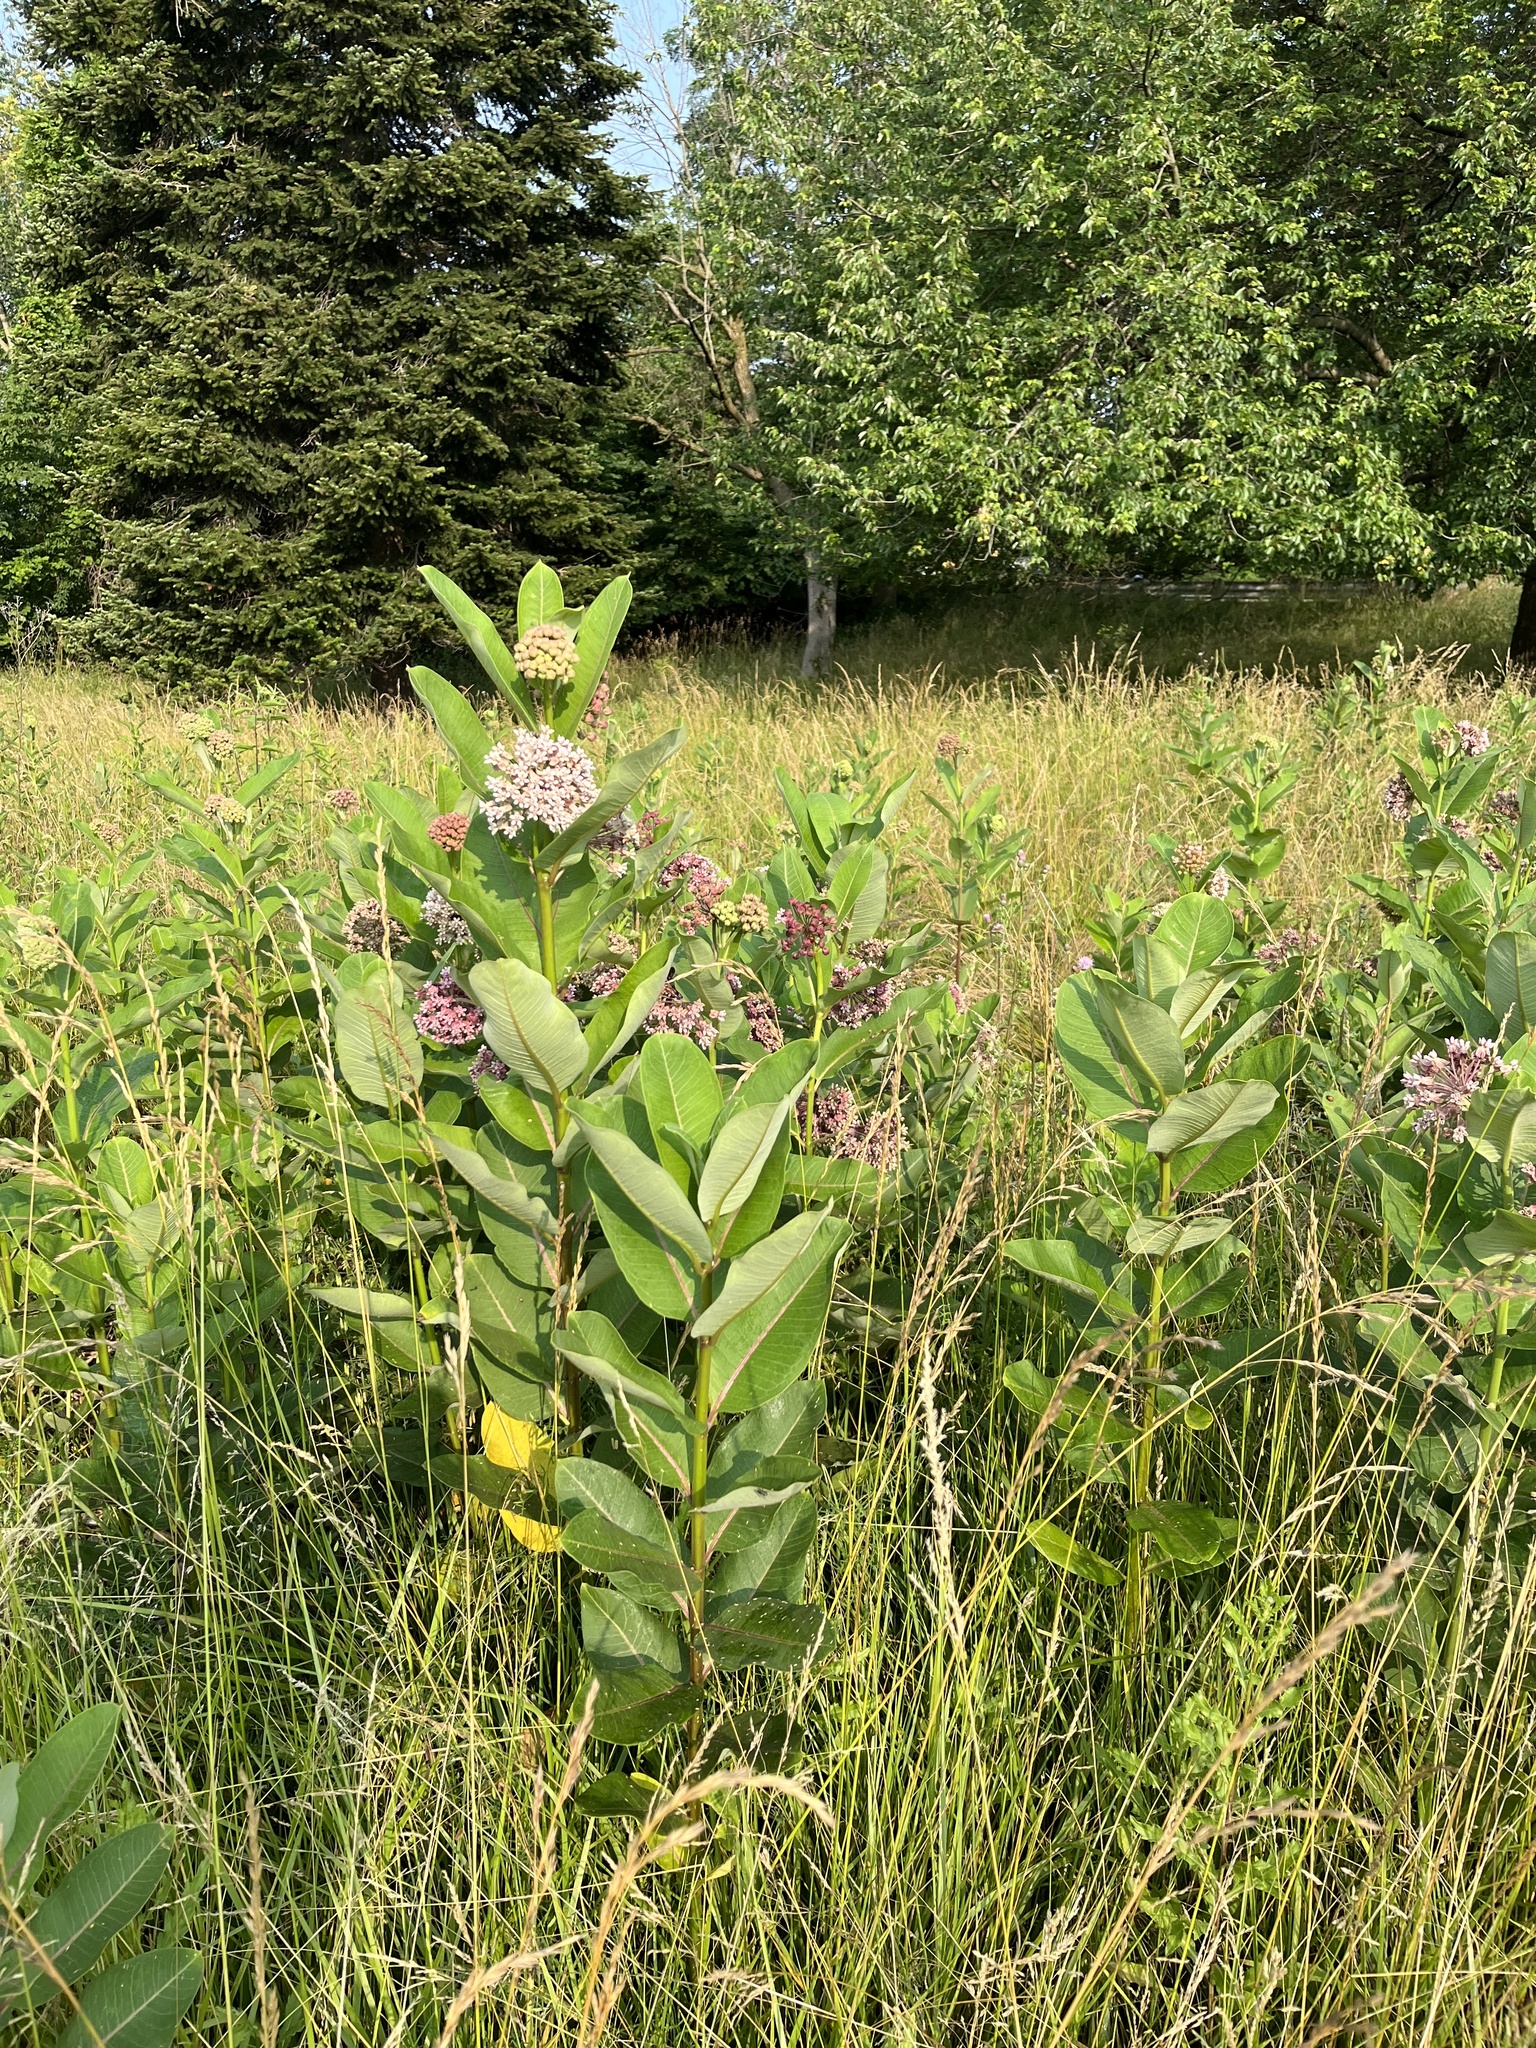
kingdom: Plantae
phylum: Tracheophyta
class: Magnoliopsida
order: Gentianales
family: Apocynaceae
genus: Asclepias
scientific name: Asclepias syriaca
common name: Common milkweed
